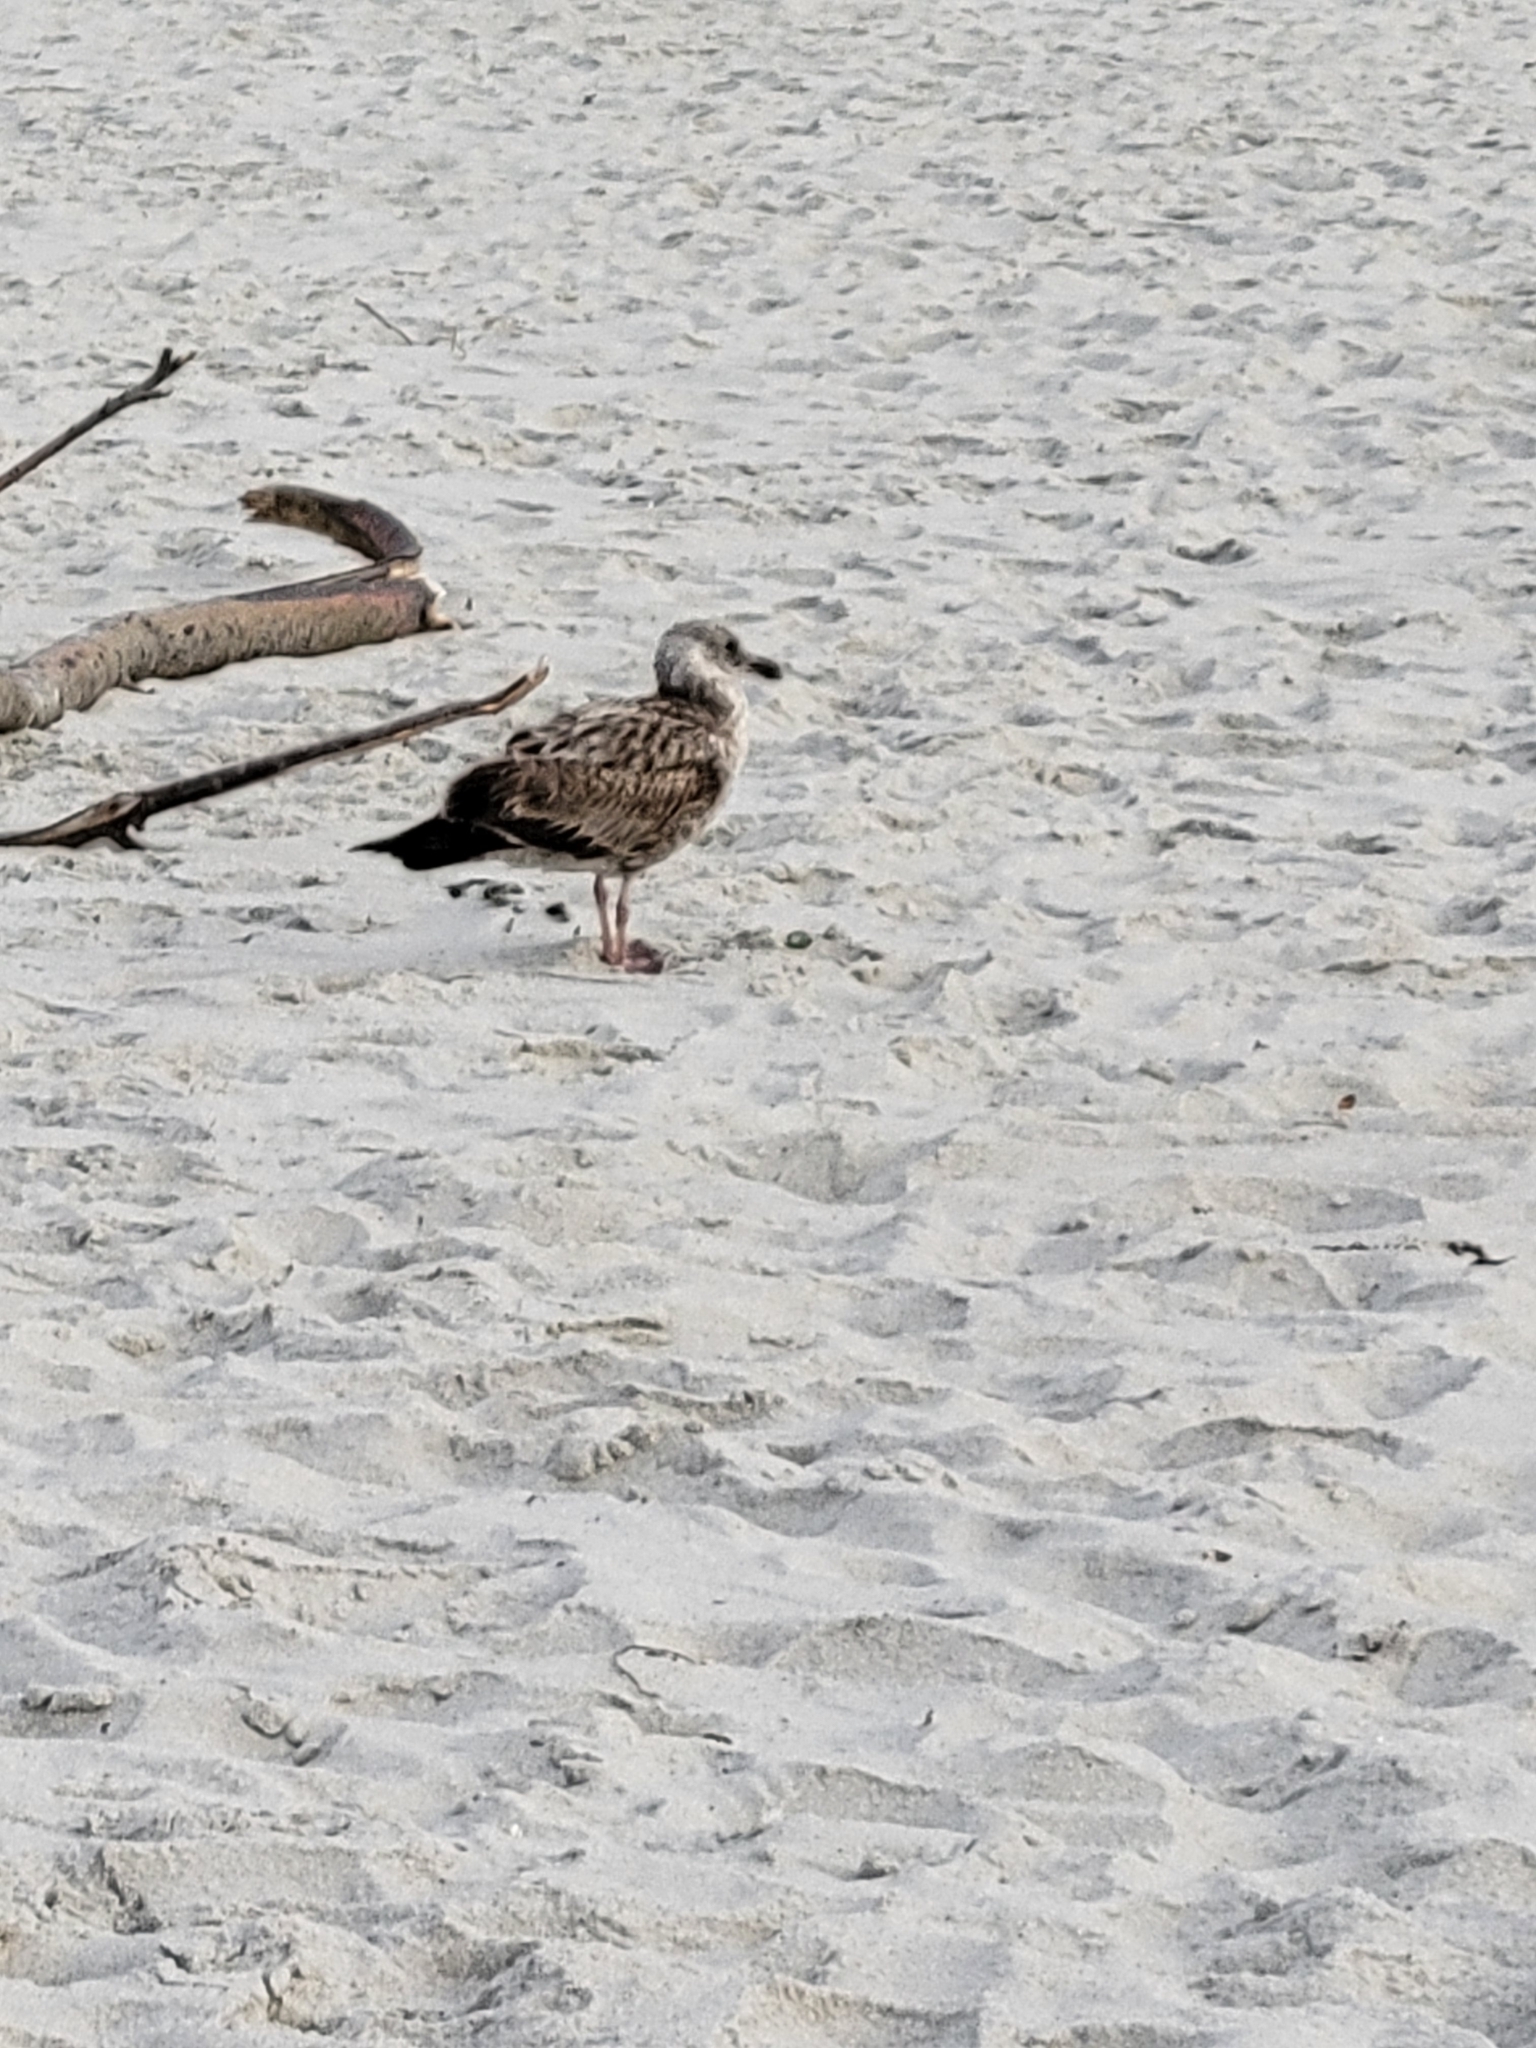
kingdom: Animalia
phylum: Chordata
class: Aves
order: Charadriiformes
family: Laridae
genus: Larus
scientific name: Larus occidentalis
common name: Western gull
